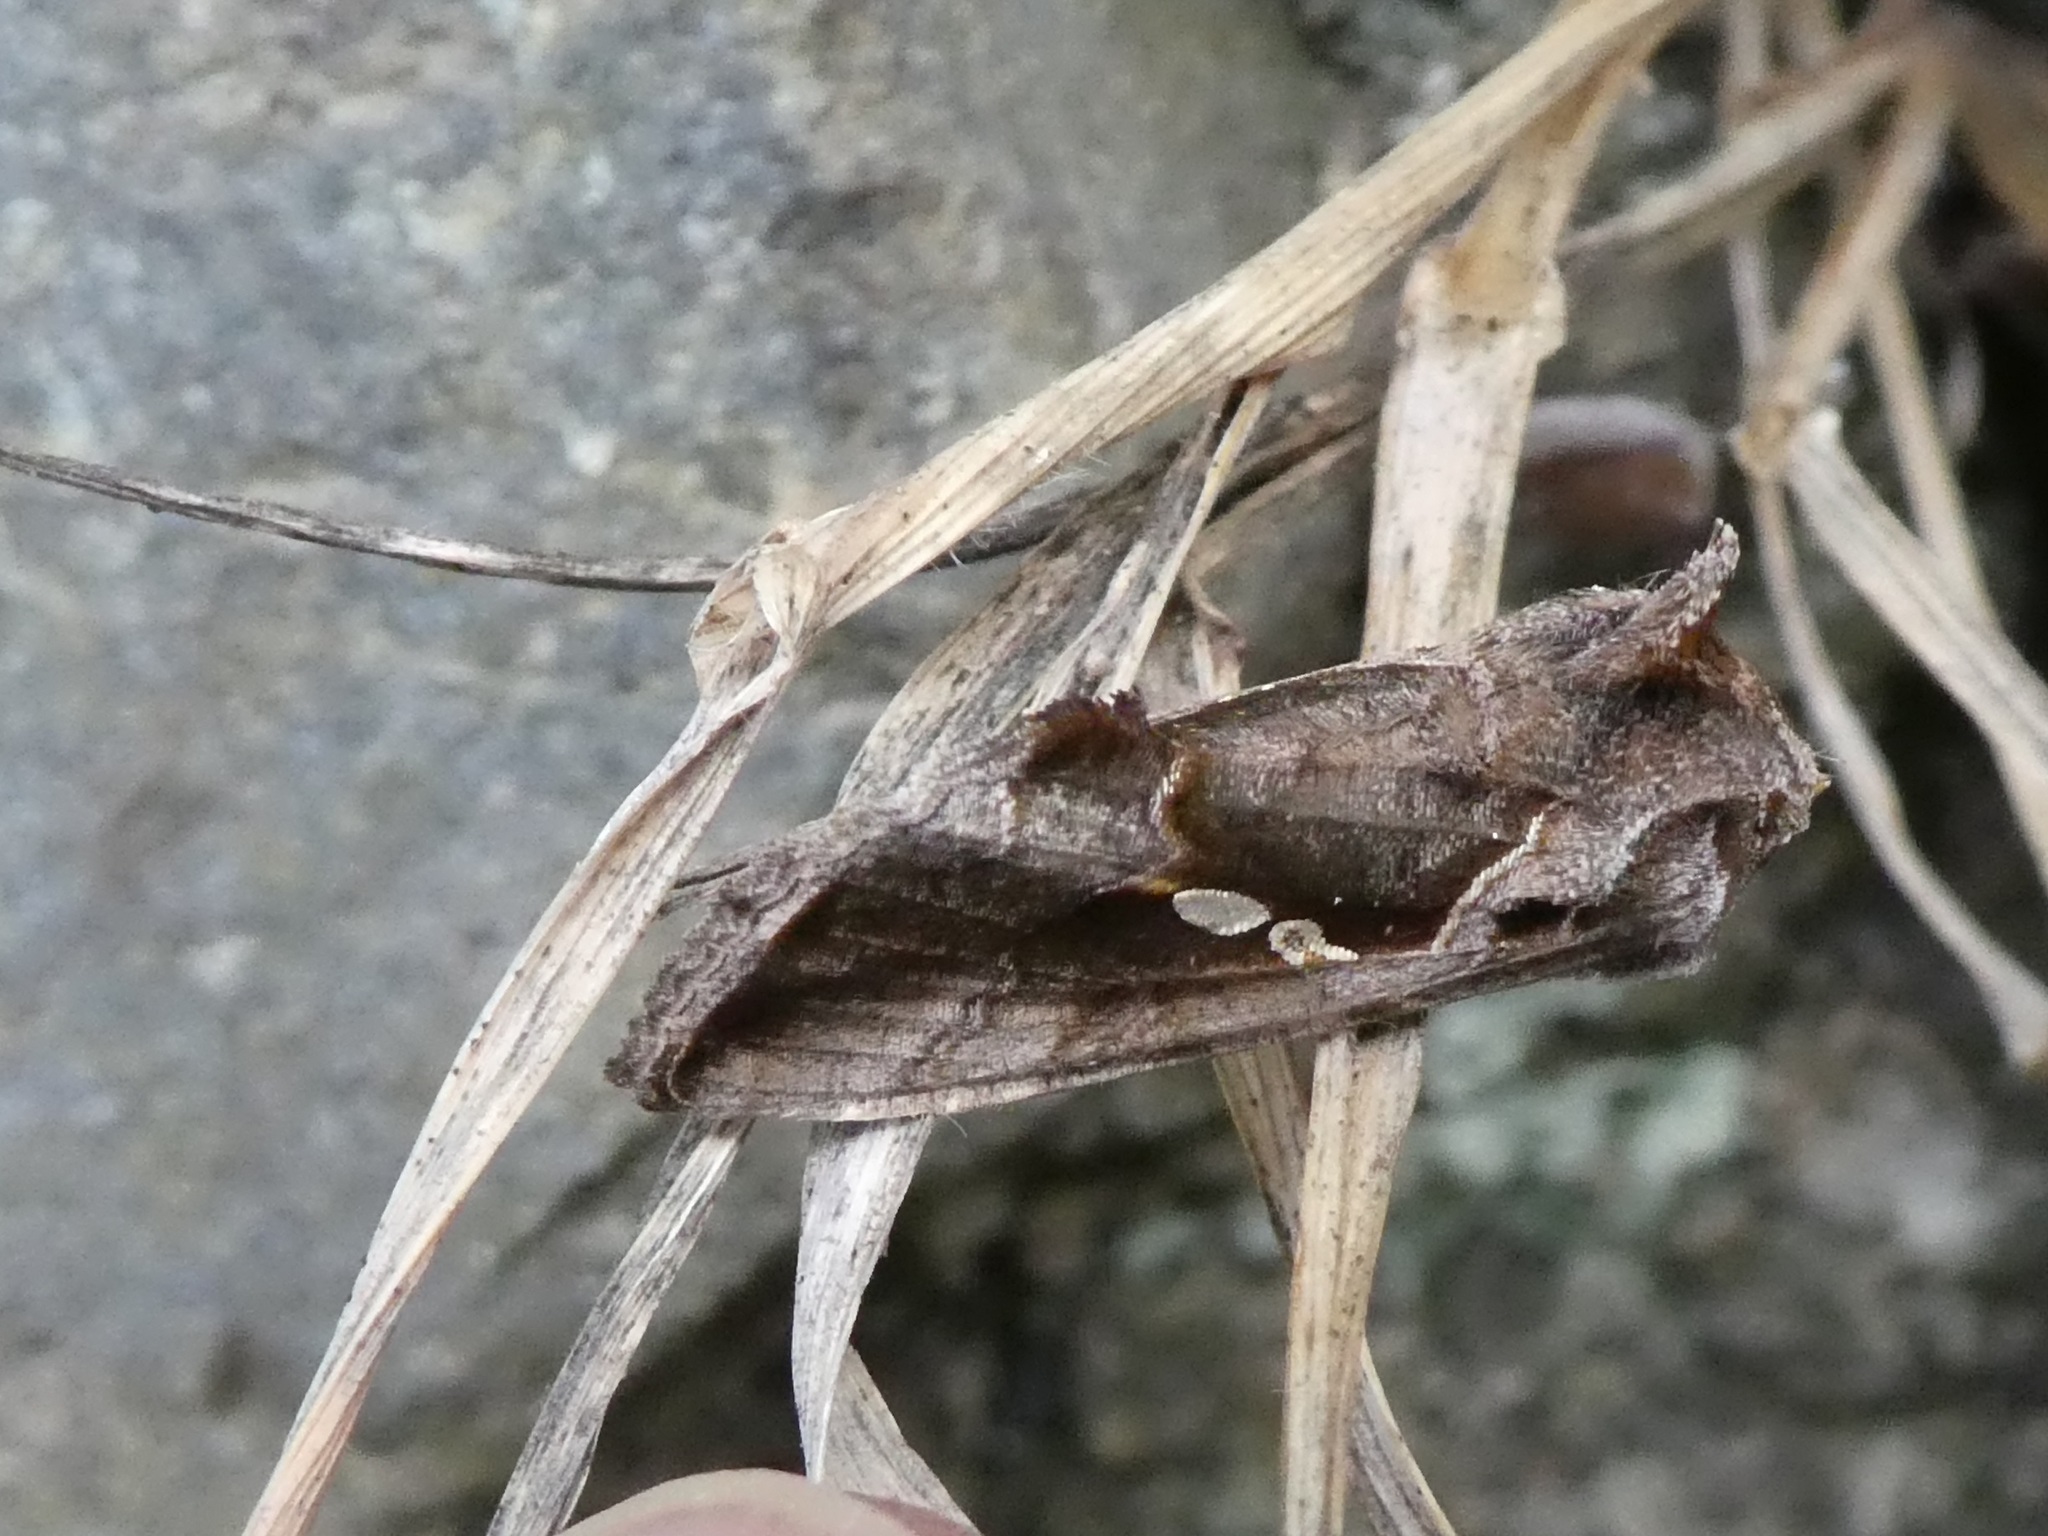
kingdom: Animalia
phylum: Arthropoda
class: Insecta
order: Lepidoptera
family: Noctuidae
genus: Chrysodeixis
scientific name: Chrysodeixis eriosoma
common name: Green garden looper
